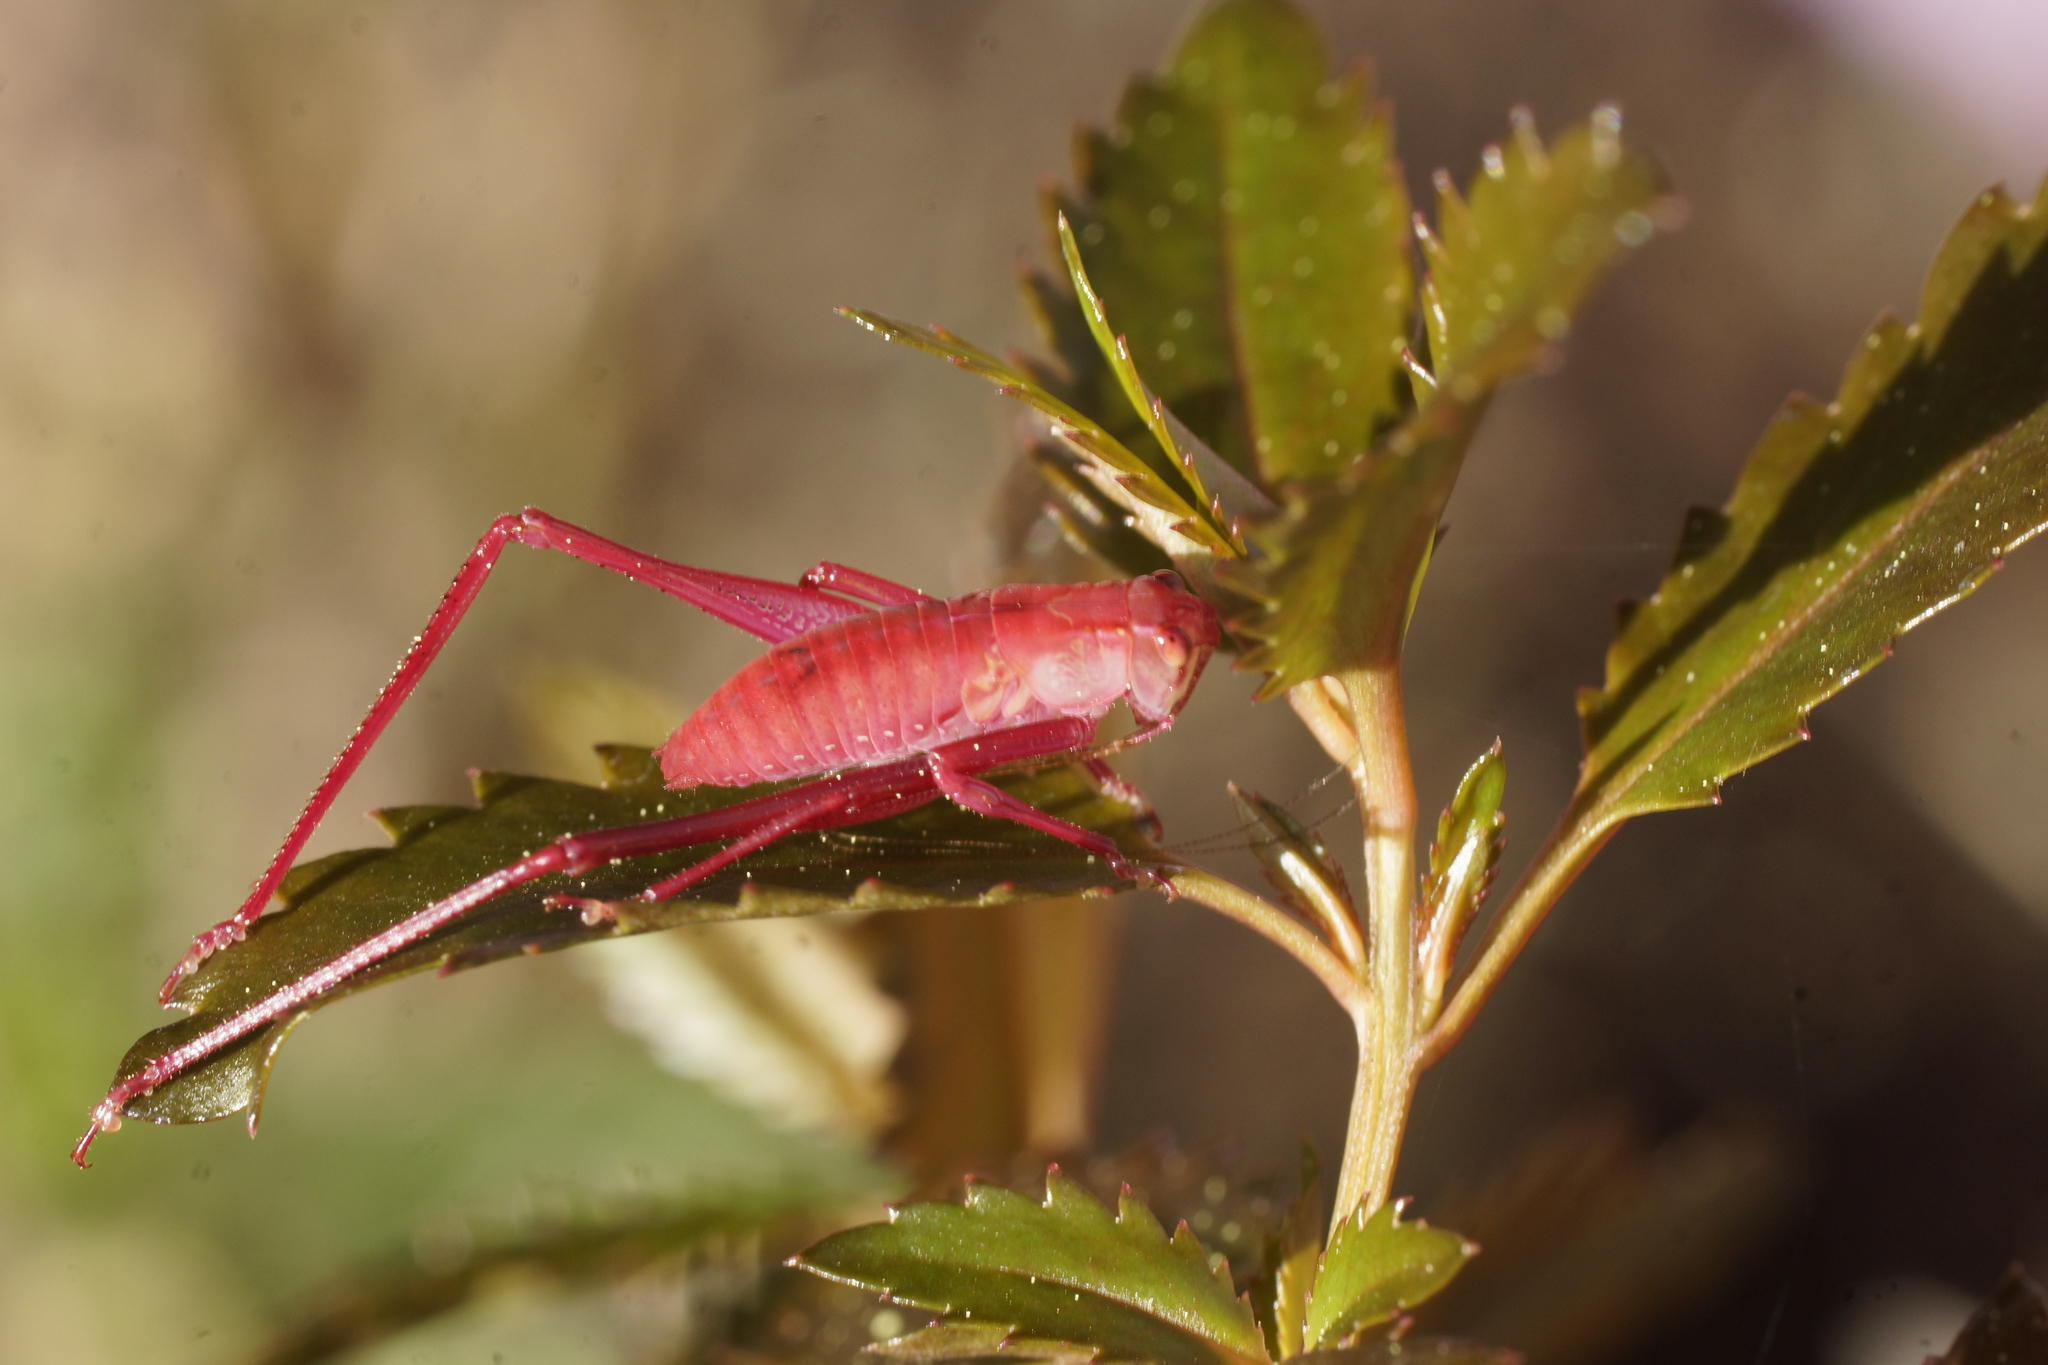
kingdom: Animalia
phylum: Arthropoda
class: Insecta
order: Orthoptera
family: Tettigoniidae
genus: Caedicia
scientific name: Caedicia simplex
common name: Common garden katydid
